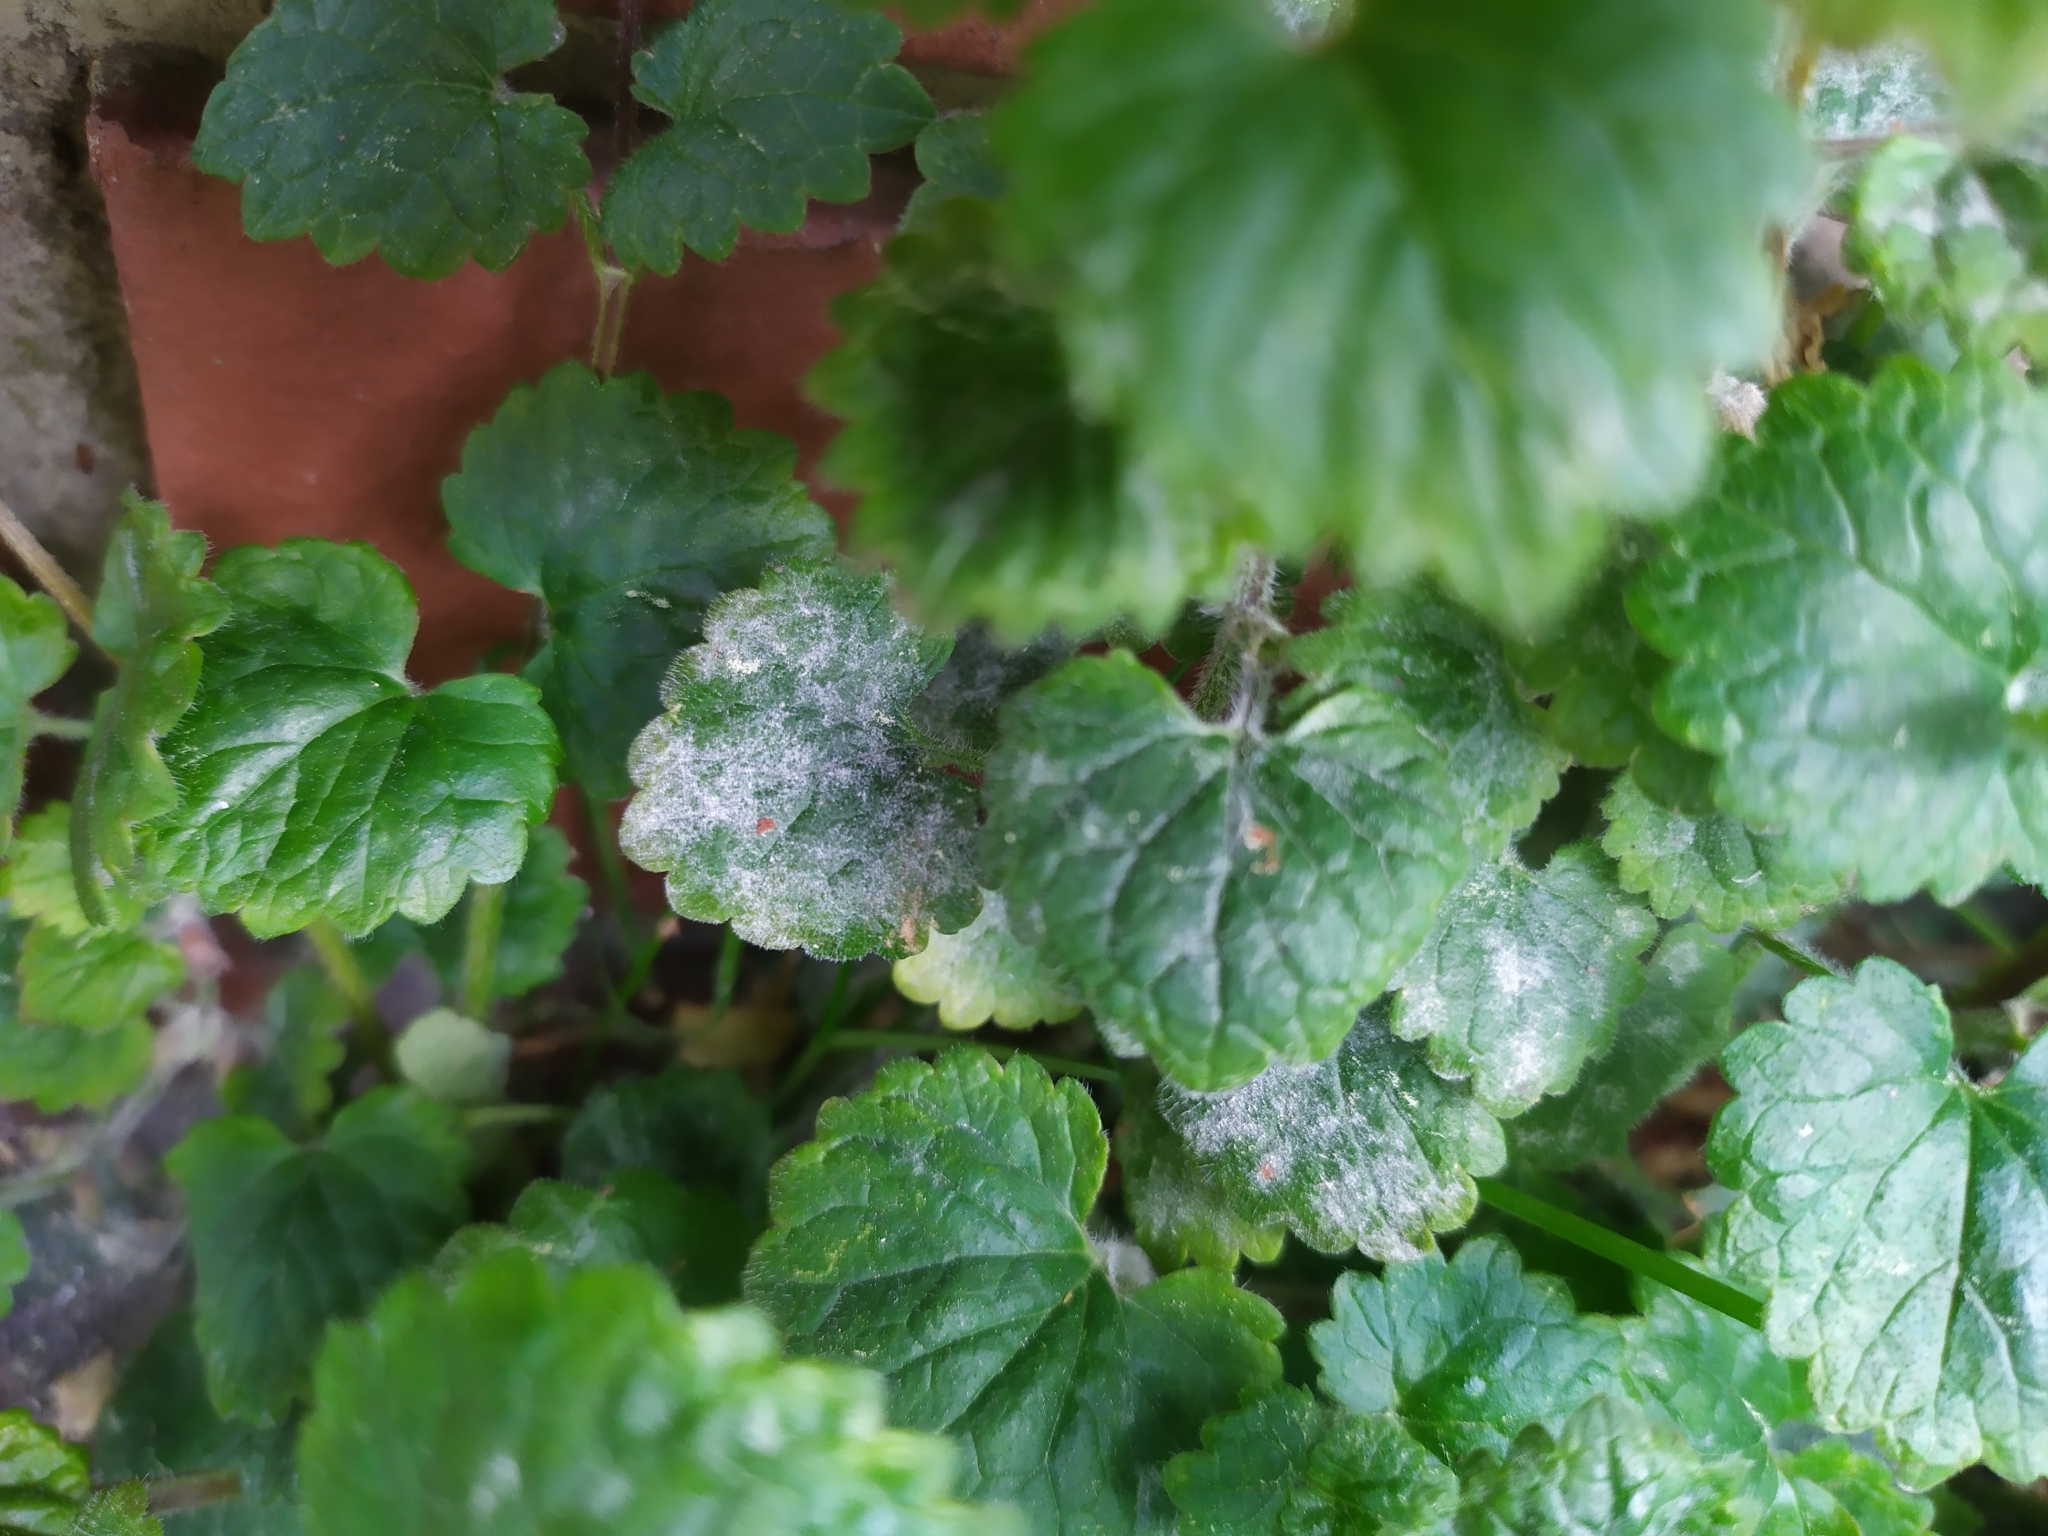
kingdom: Fungi
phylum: Ascomycota
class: Leotiomycetes
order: Helotiales
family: Erysiphaceae
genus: Golovinomyces
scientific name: Golovinomyces biocellatus
